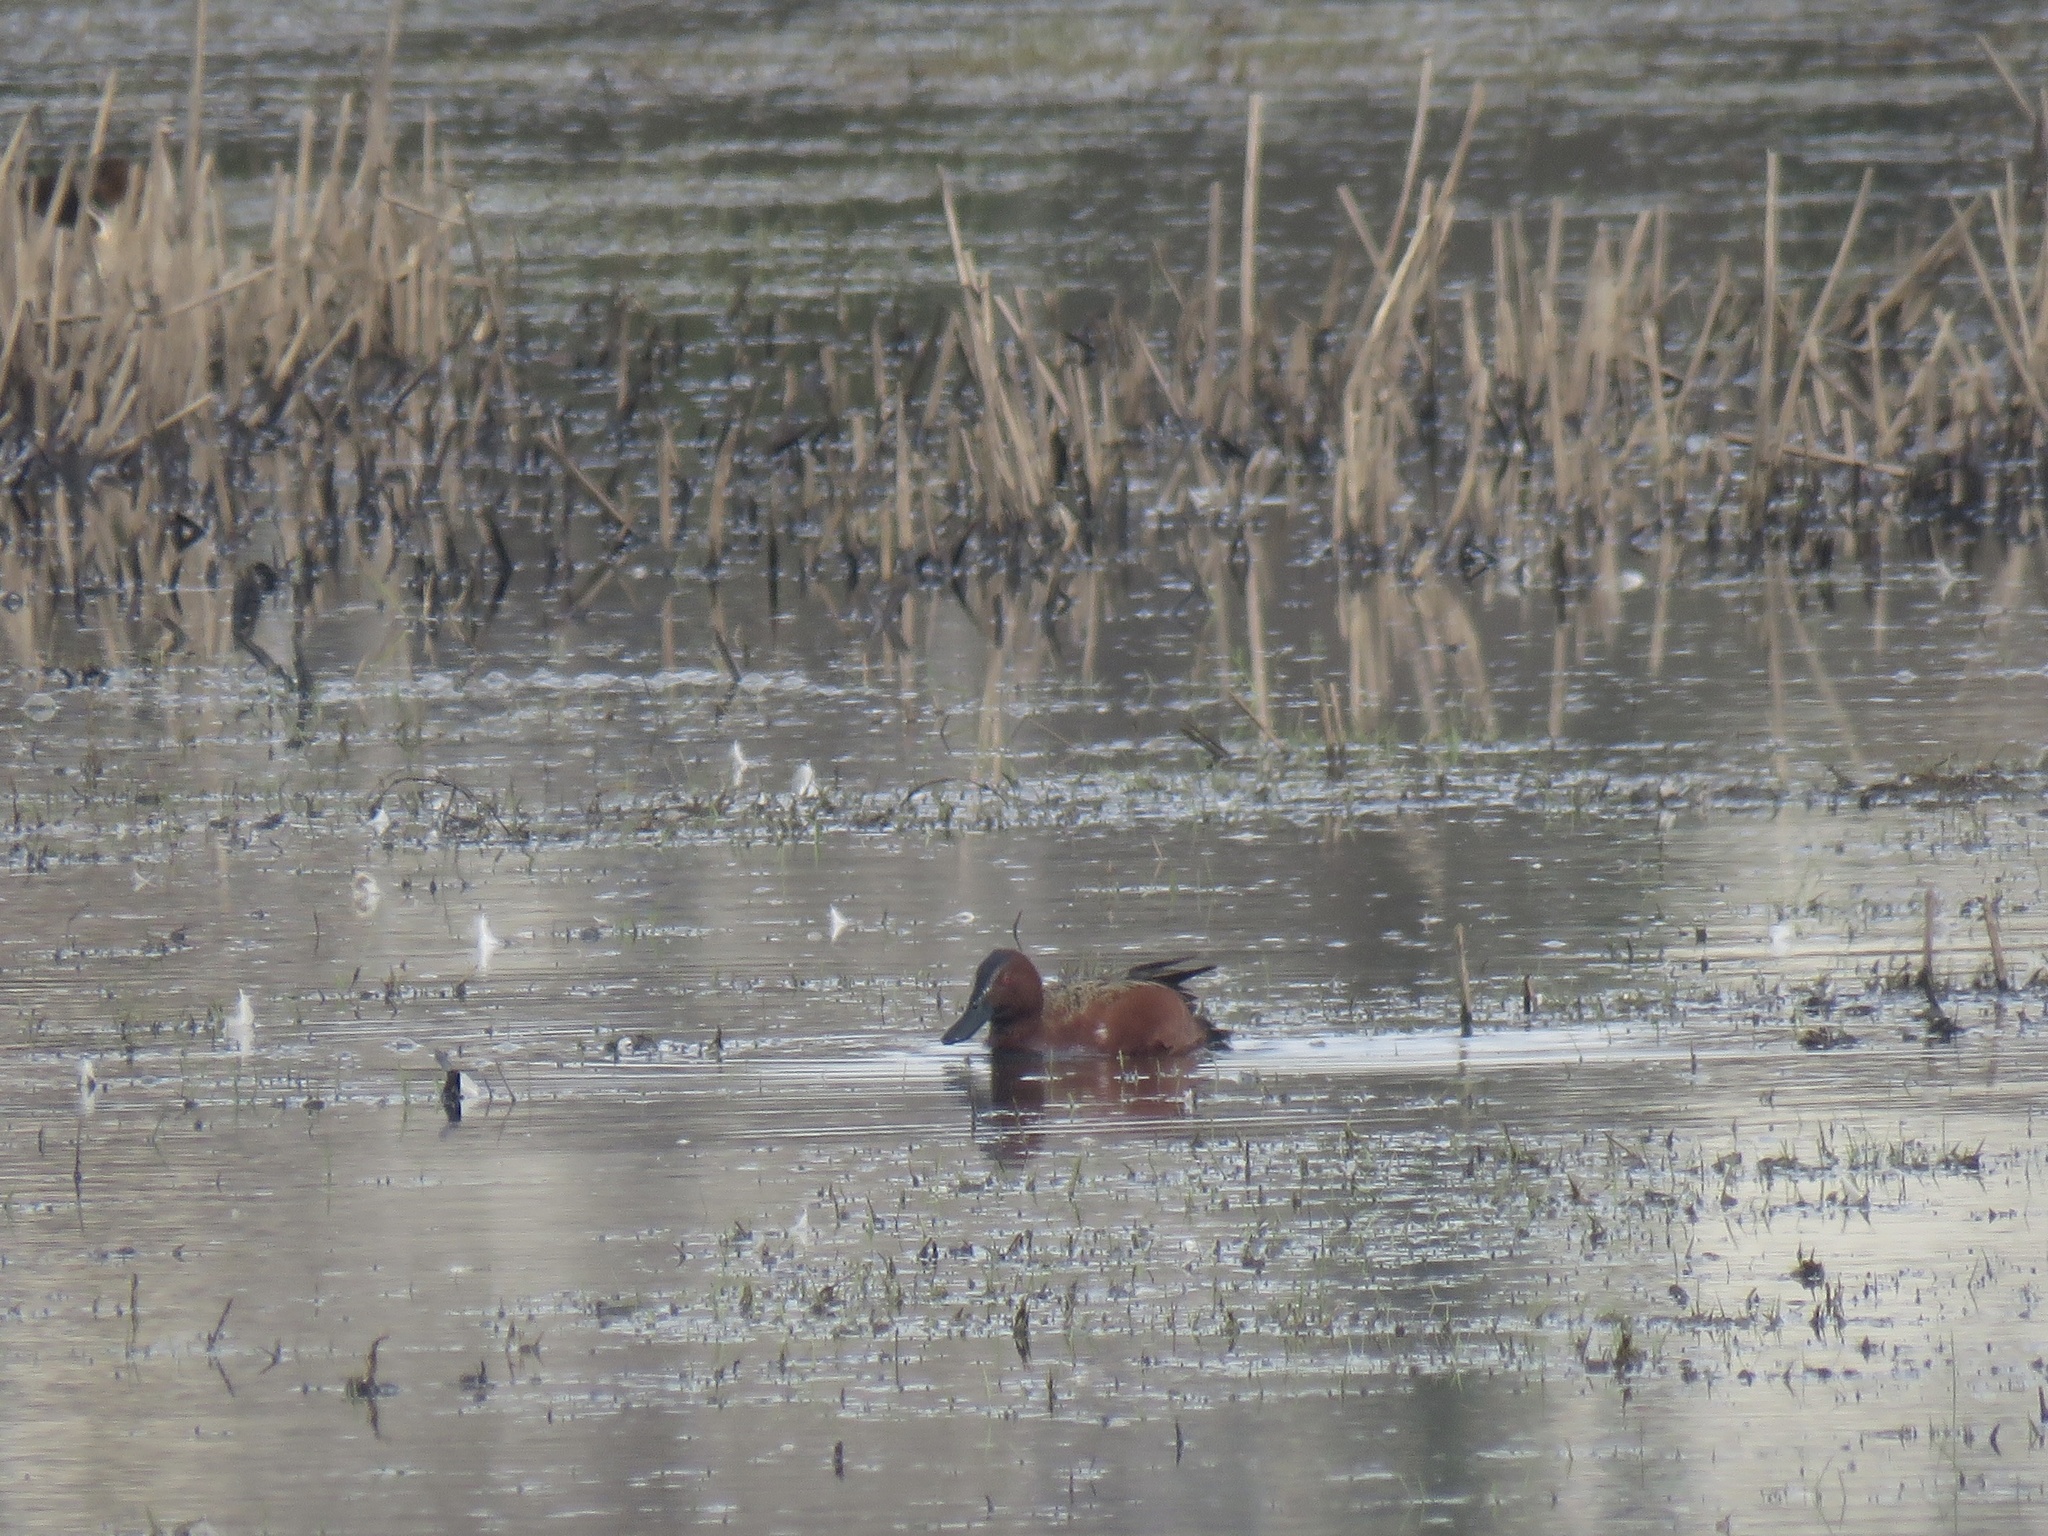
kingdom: Animalia
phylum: Chordata
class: Aves
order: Anseriformes
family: Anatidae
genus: Spatula
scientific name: Spatula cyanoptera
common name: Cinnamon teal
